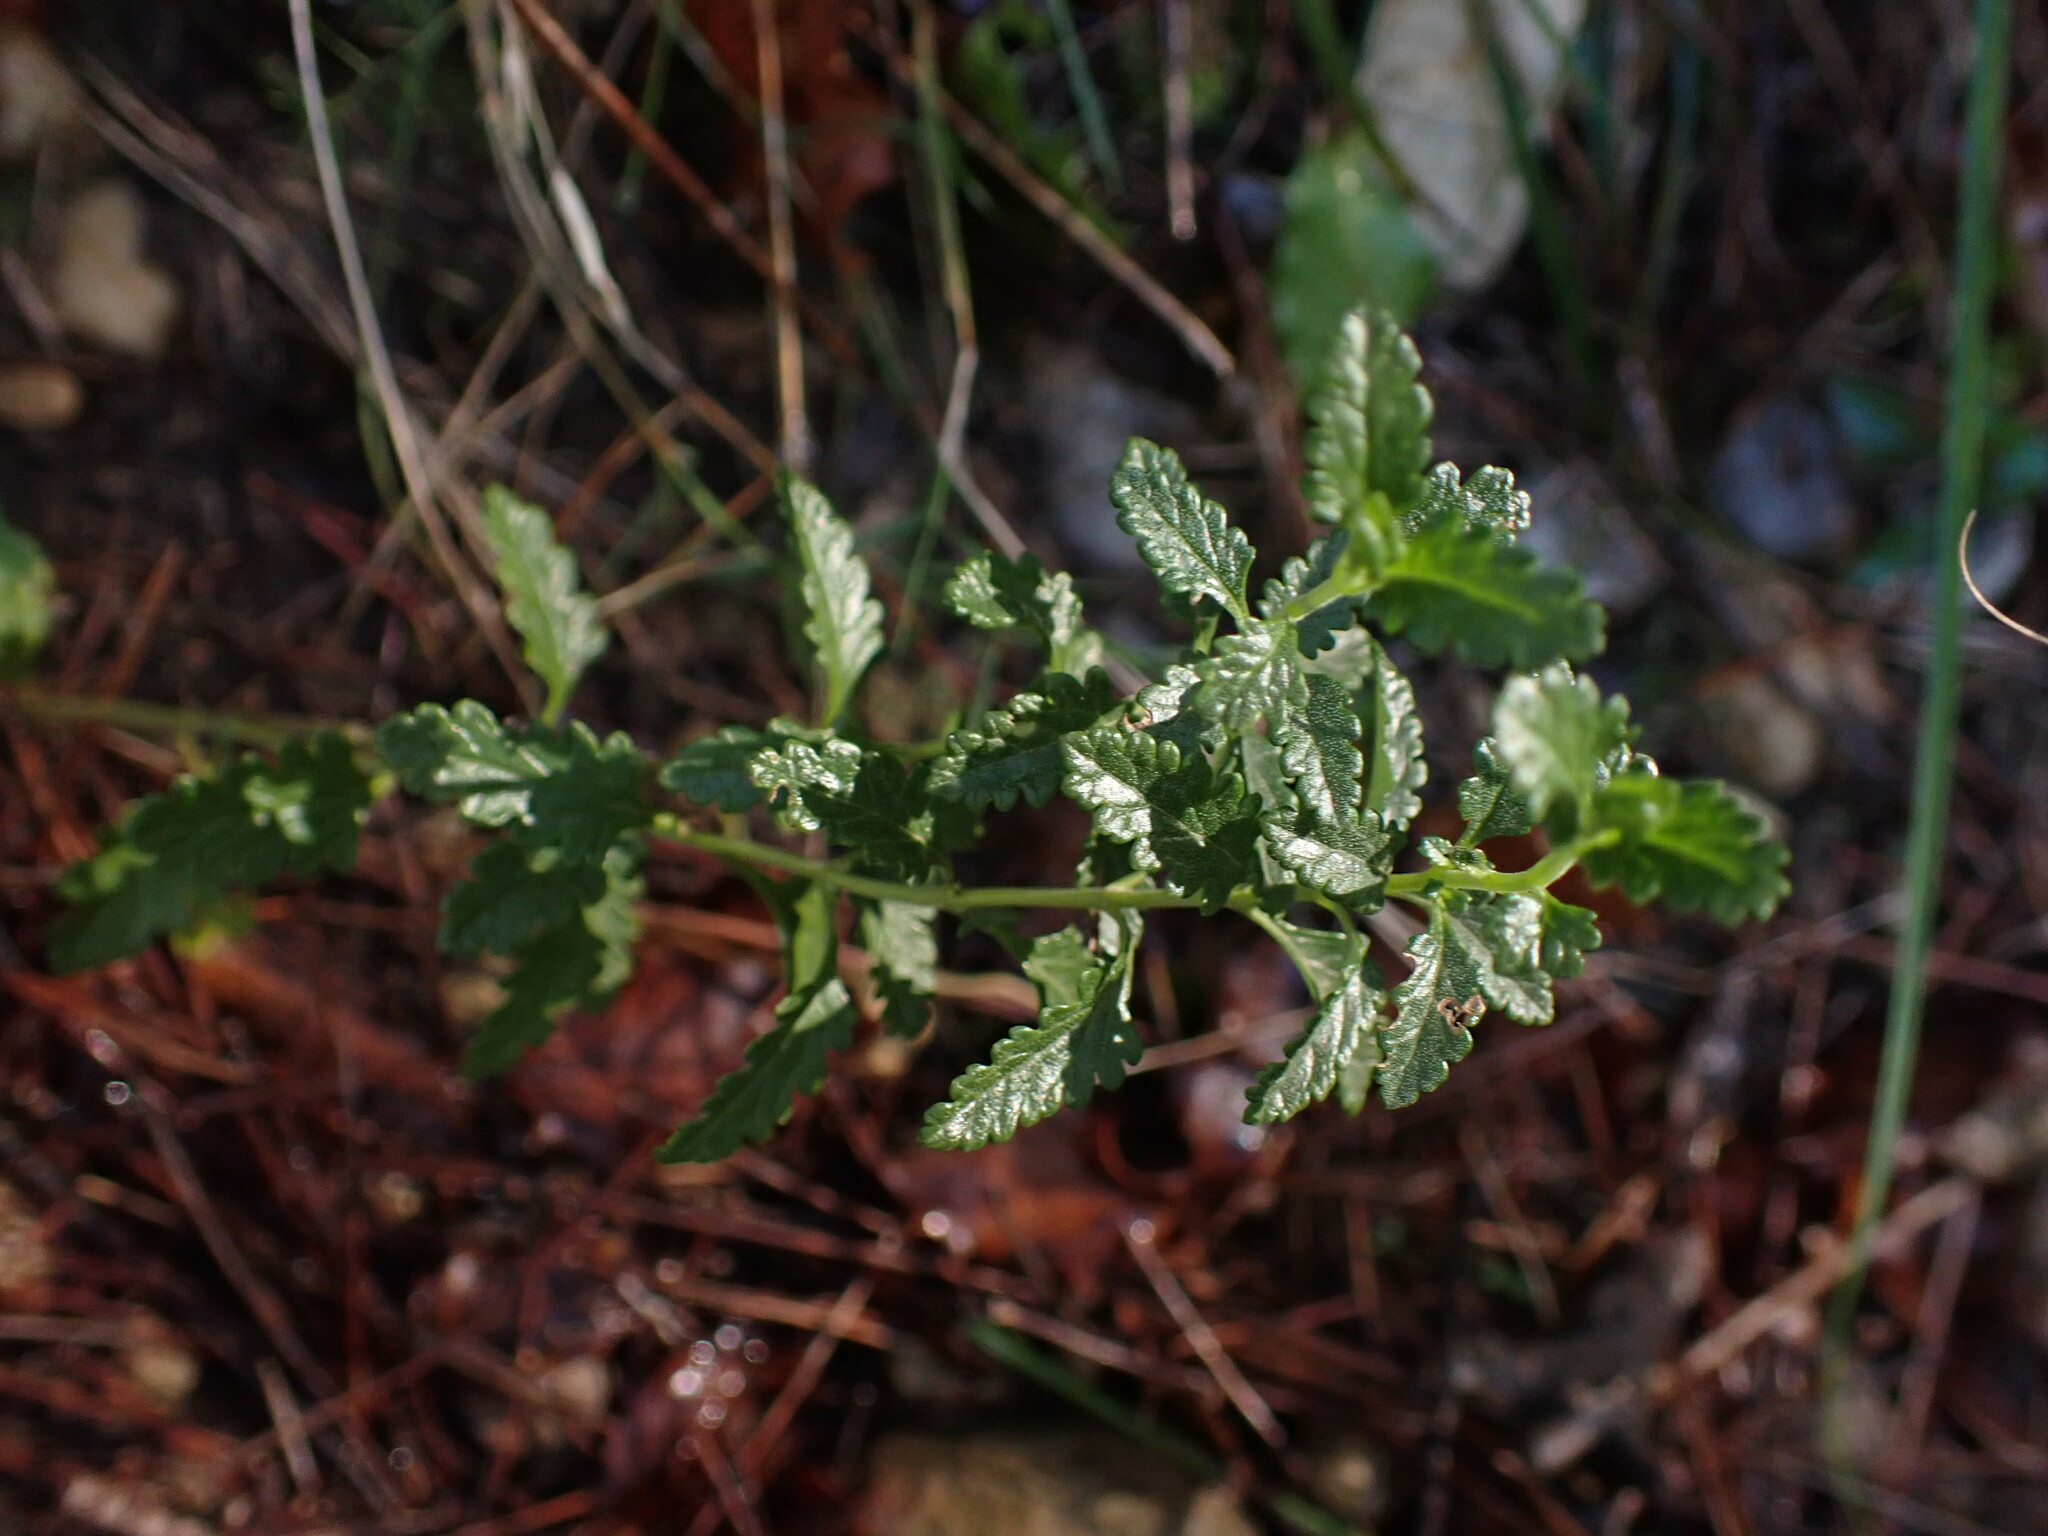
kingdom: Plantae
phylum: Tracheophyta
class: Magnoliopsida
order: Lamiales
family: Lamiaceae
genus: Teucrium
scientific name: Teucrium chamaedrys
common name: Wall germander
